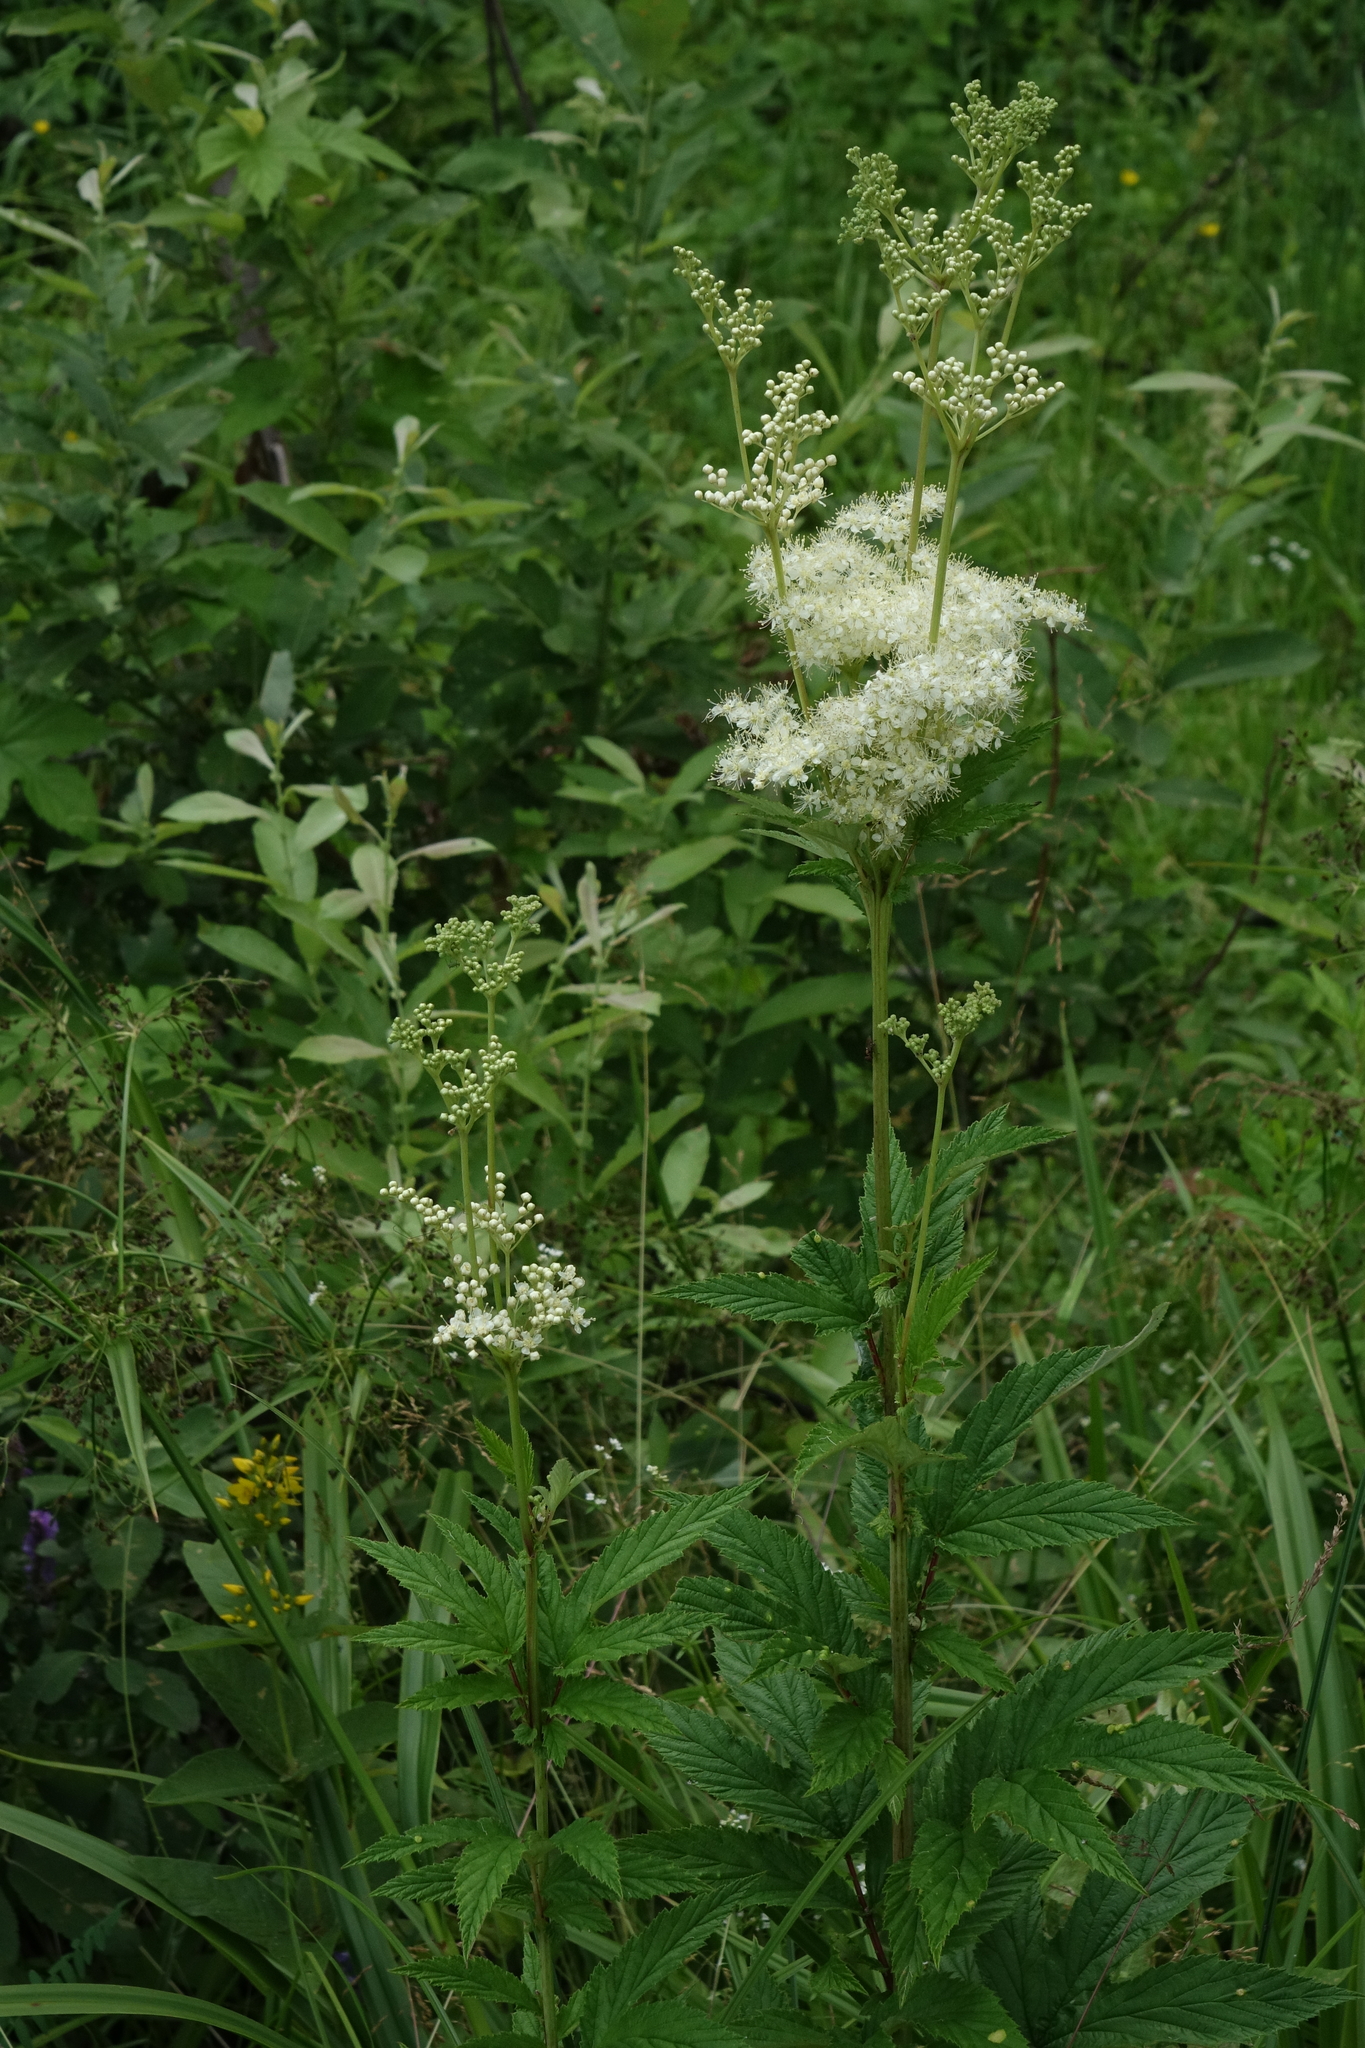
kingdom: Plantae
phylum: Tracheophyta
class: Magnoliopsida
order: Rosales
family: Rosaceae
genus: Filipendula
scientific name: Filipendula ulmaria
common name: Meadowsweet
